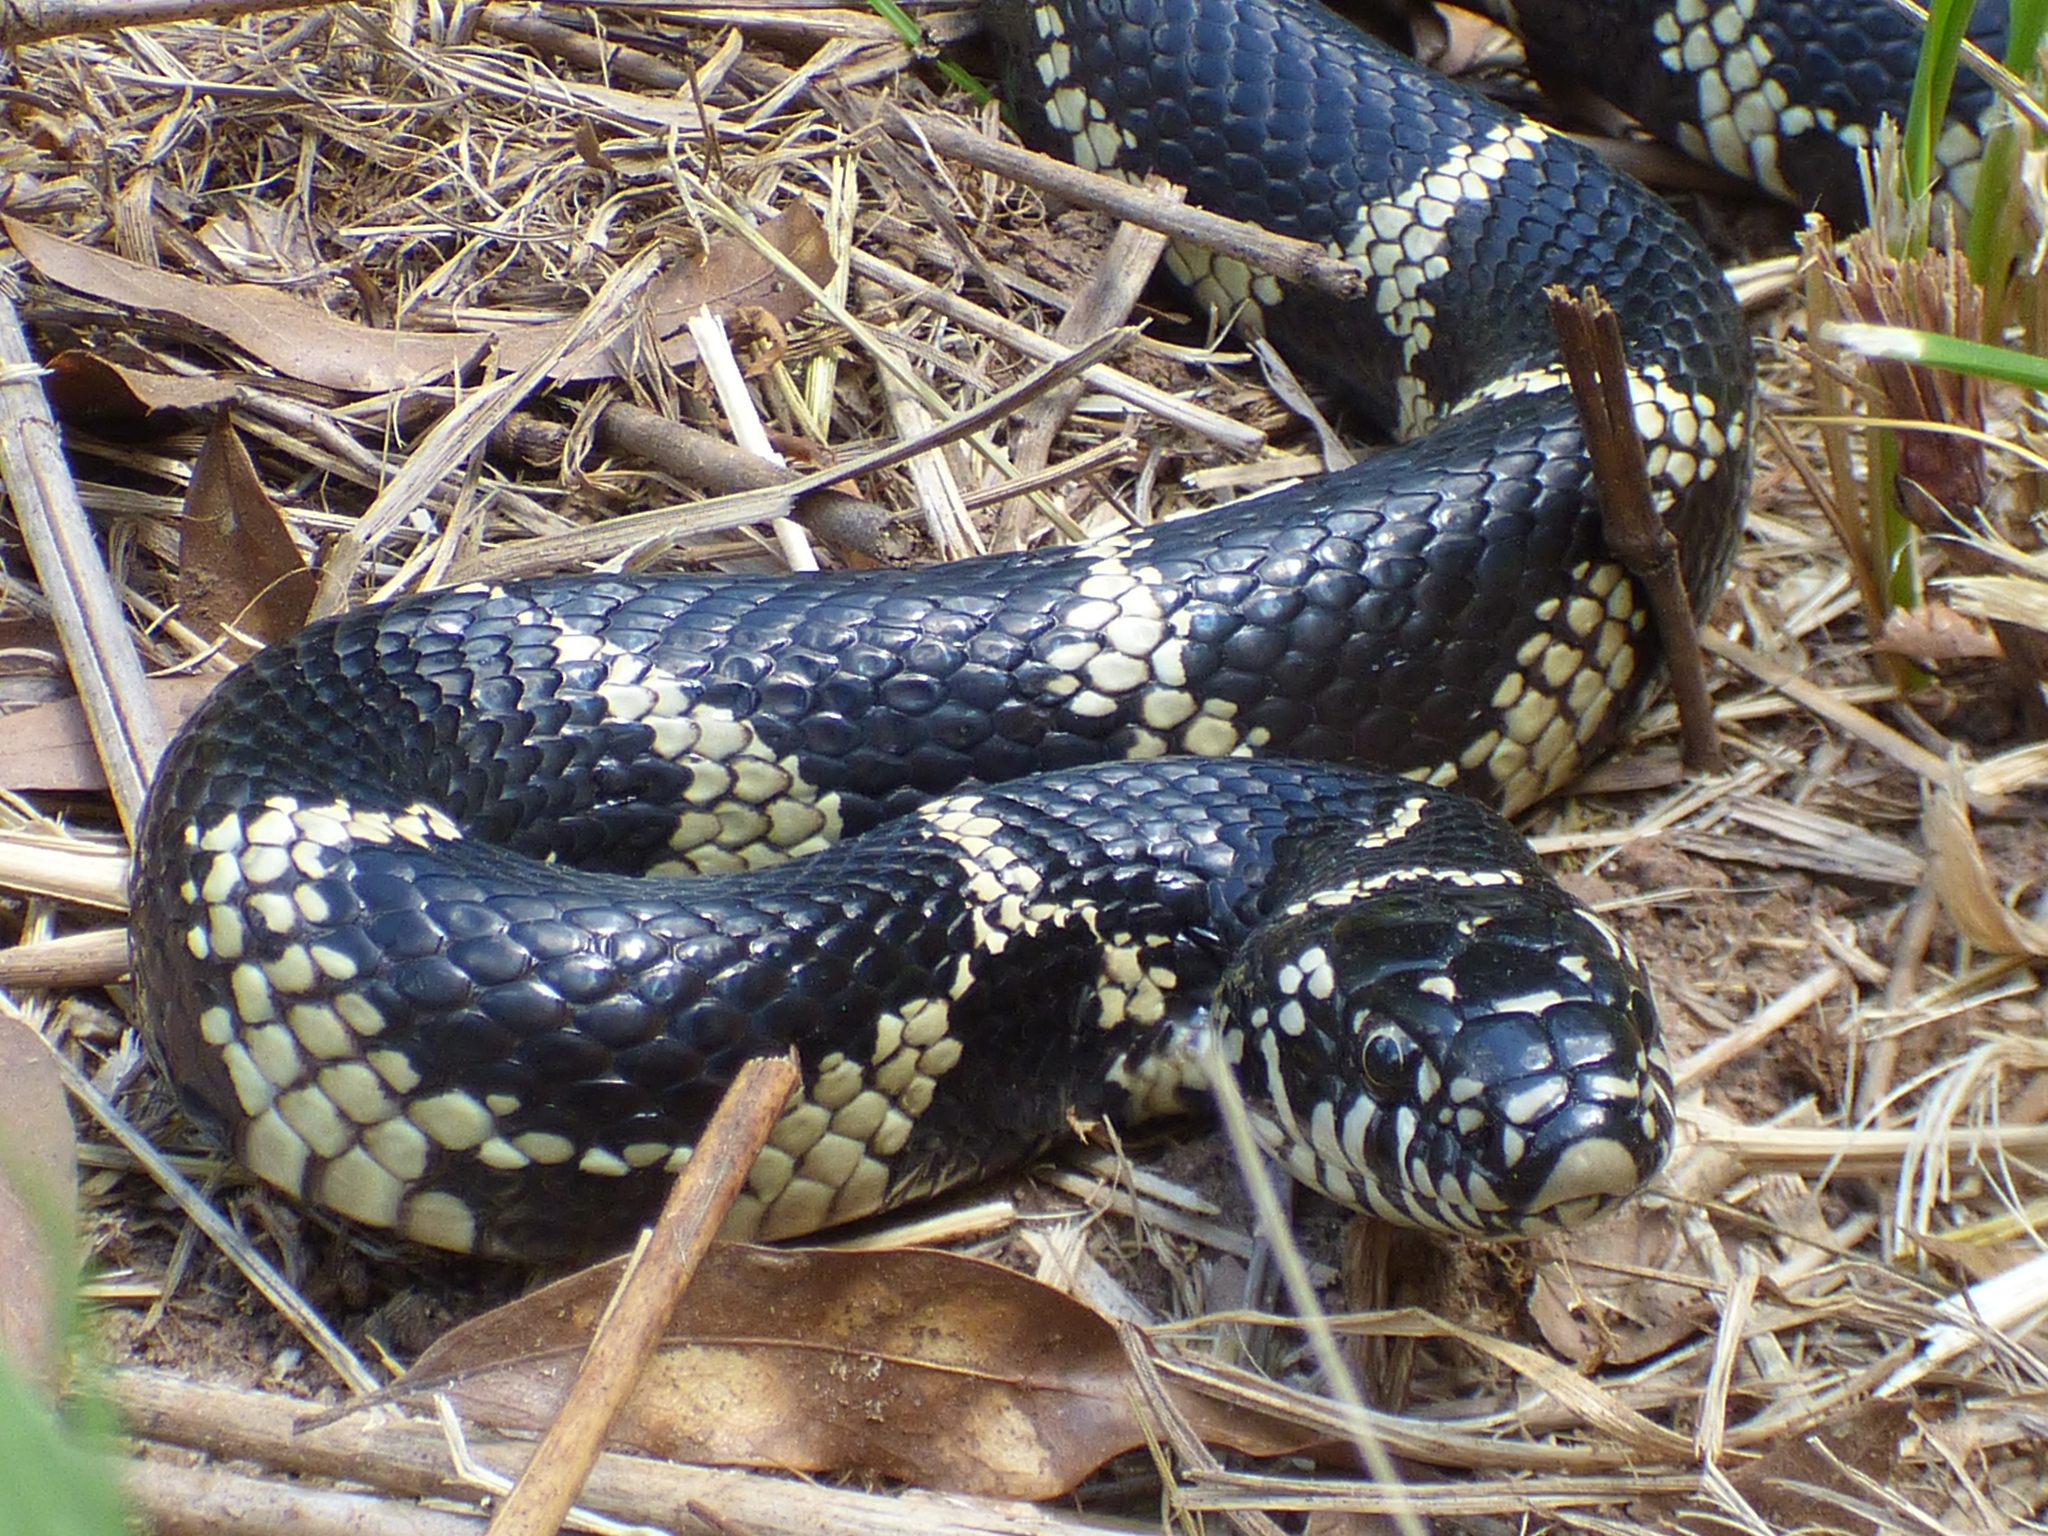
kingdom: Animalia
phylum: Chordata
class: Squamata
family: Colubridae
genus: Lampropeltis
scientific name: Lampropeltis getula
